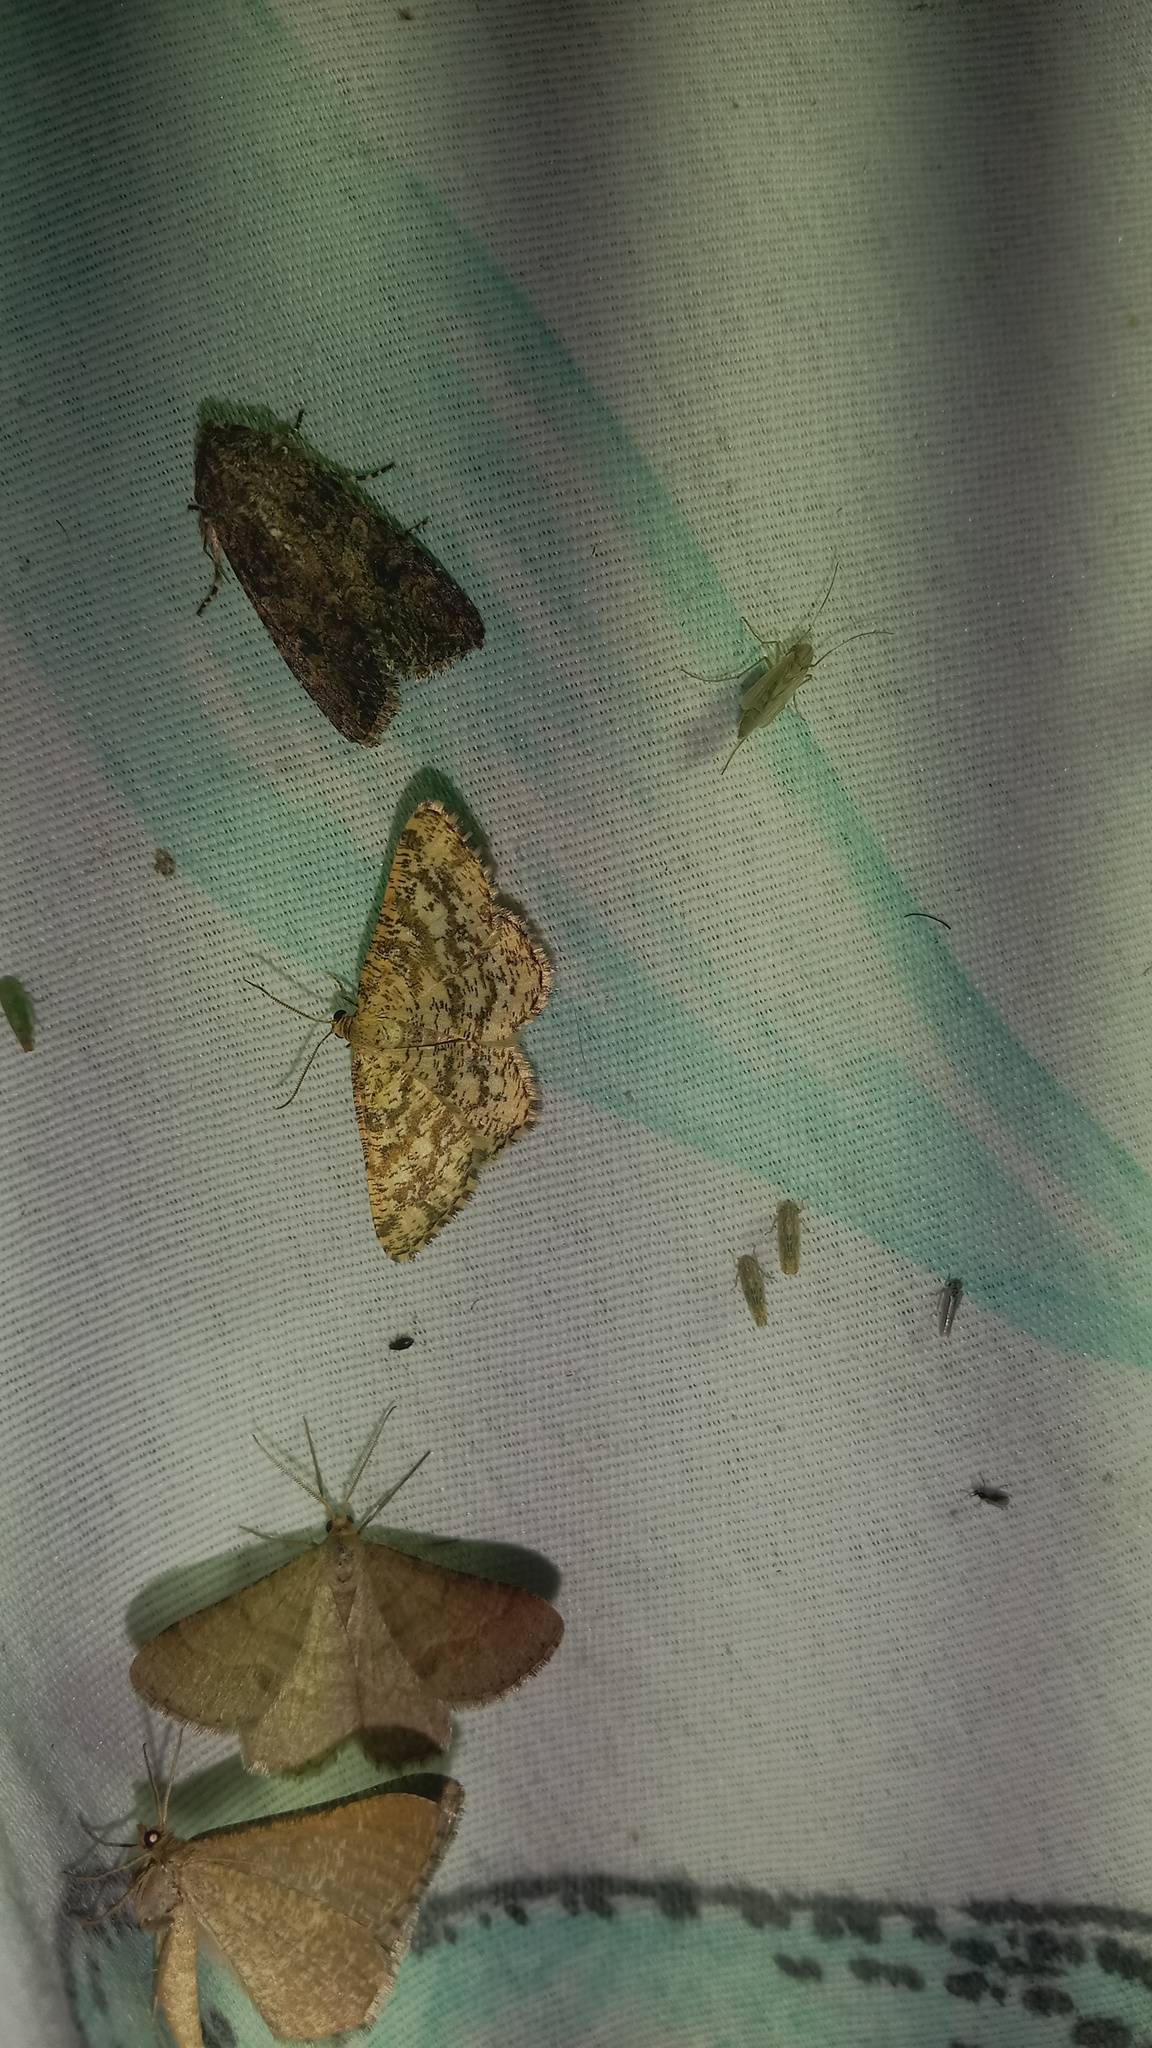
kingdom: Animalia
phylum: Arthropoda
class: Insecta
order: Lepidoptera
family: Geometridae
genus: Heliomata
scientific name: Heliomata glarearia
